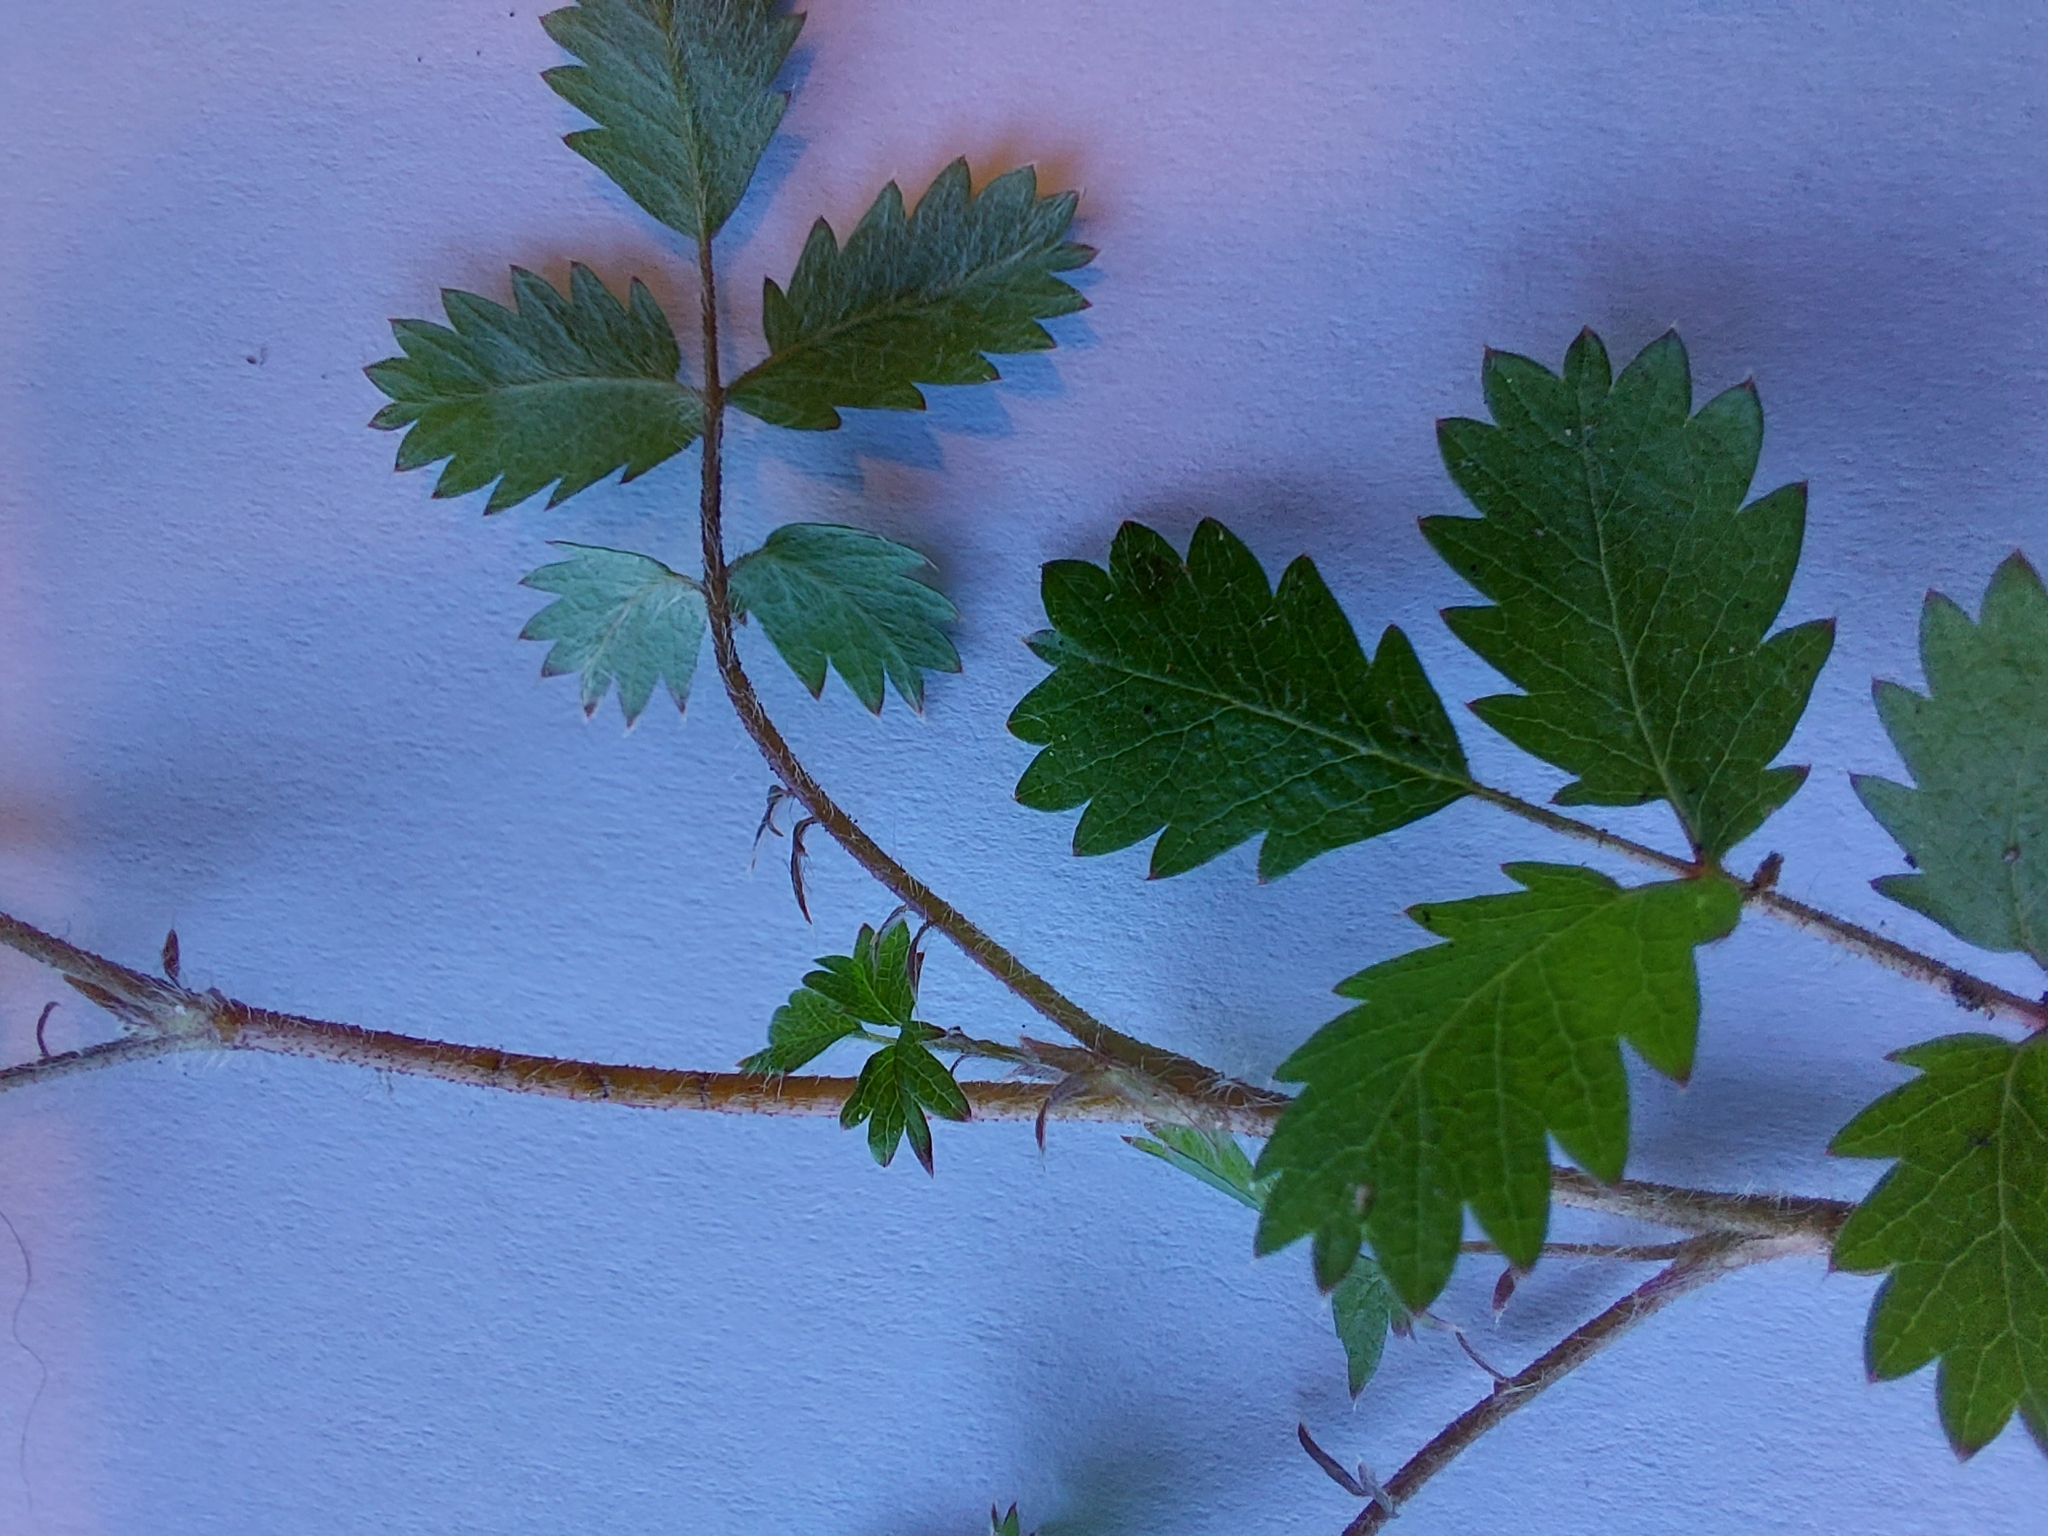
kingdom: Plantae
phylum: Tracheophyta
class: Magnoliopsida
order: Rosales
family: Rosaceae
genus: Acaena
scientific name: Acaena juvenca
